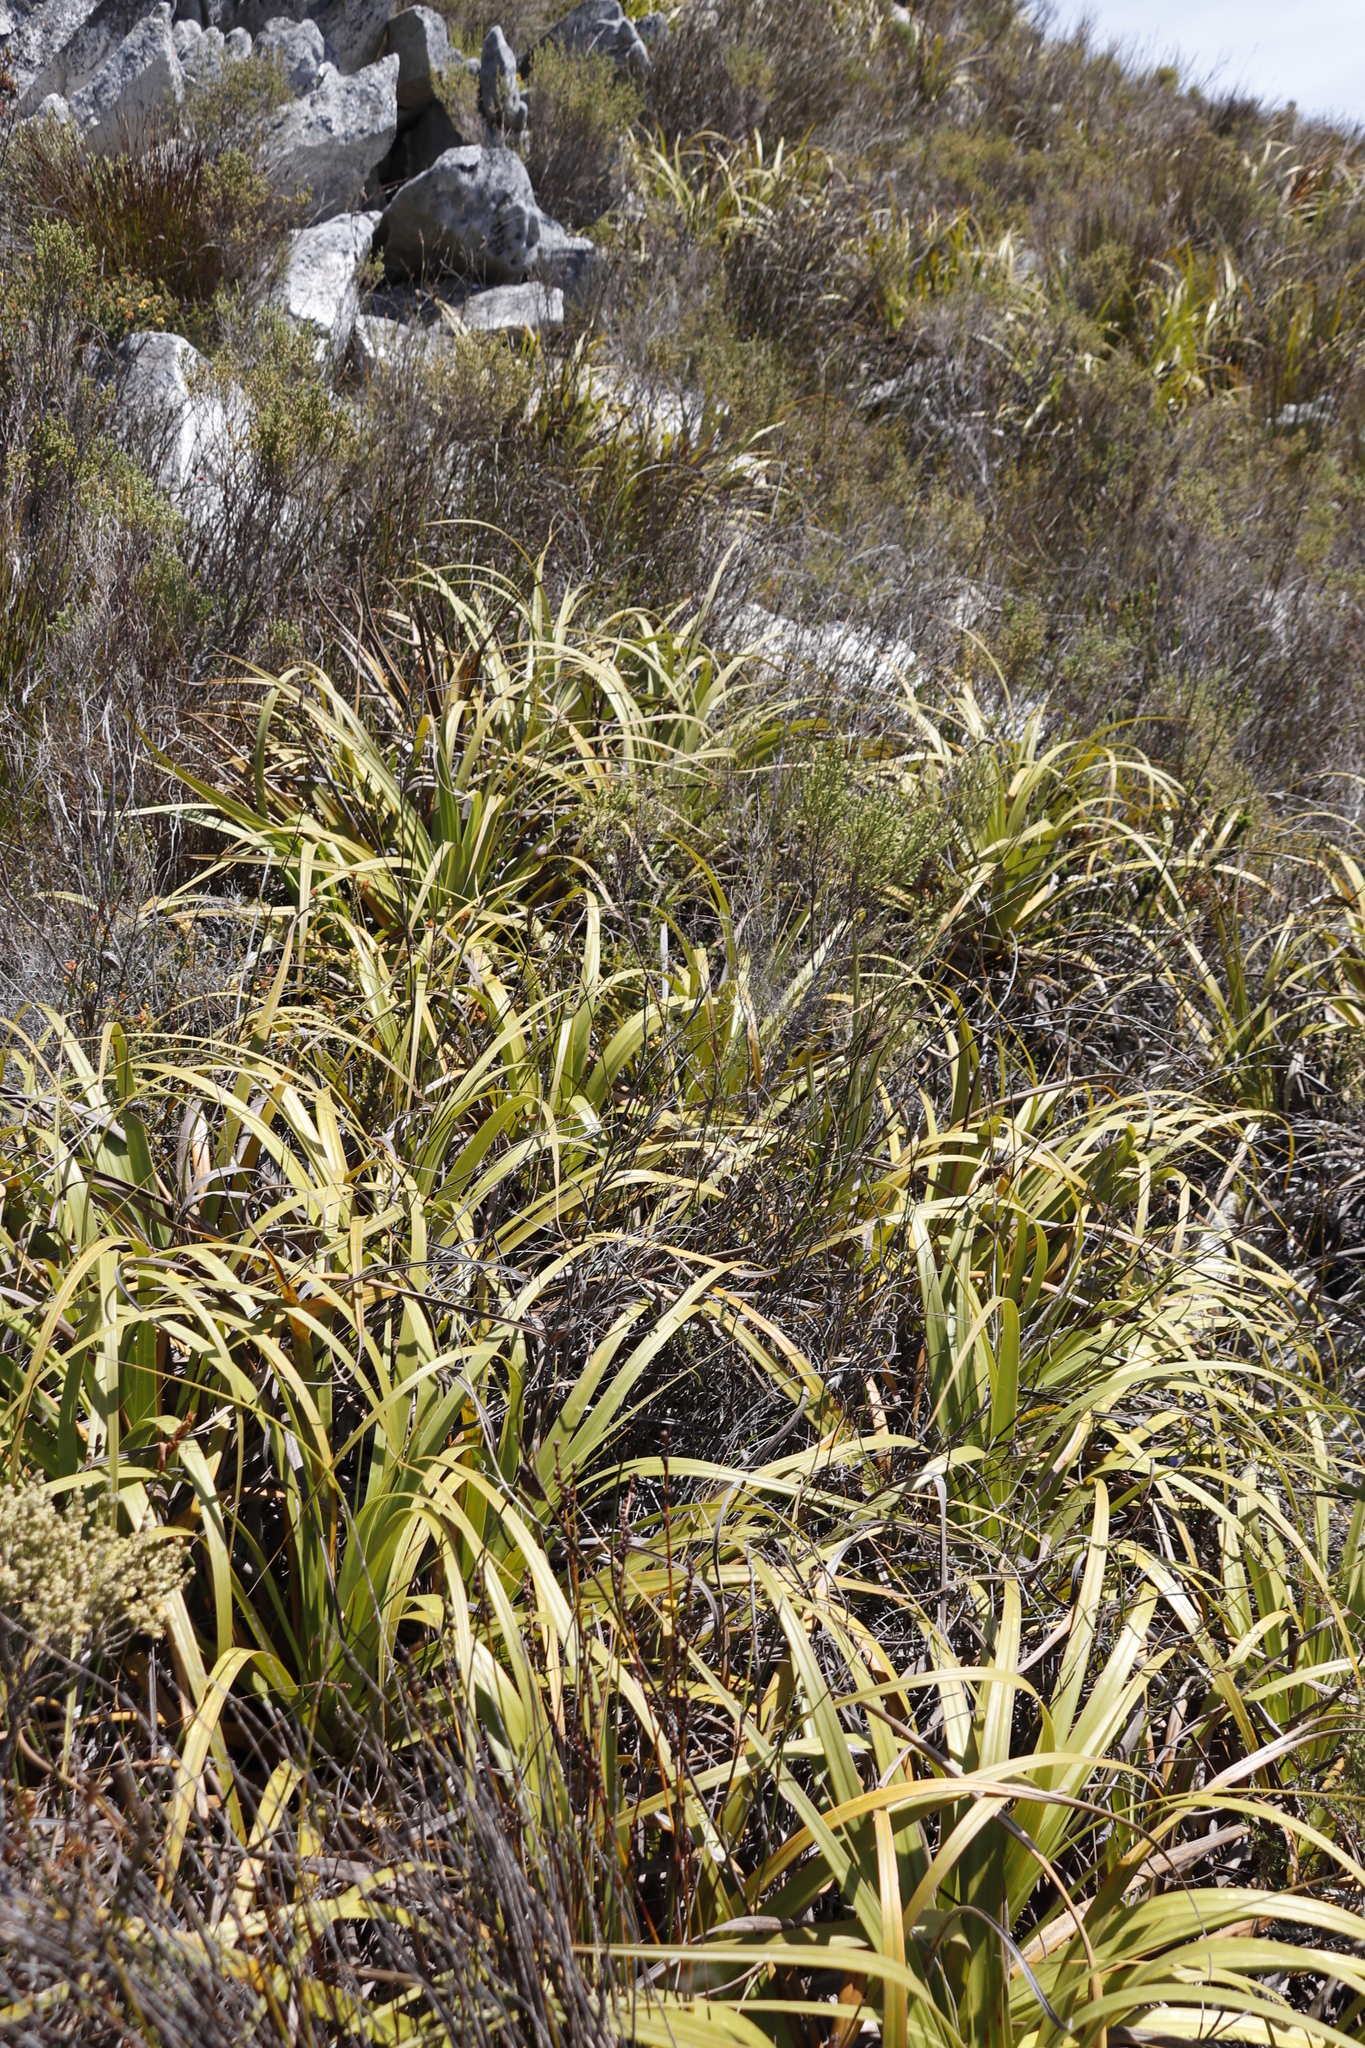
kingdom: Plantae
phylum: Tracheophyta
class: Liliopsida
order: Poales
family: Cyperaceae
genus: Tetraria
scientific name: Tetraria thermalis
